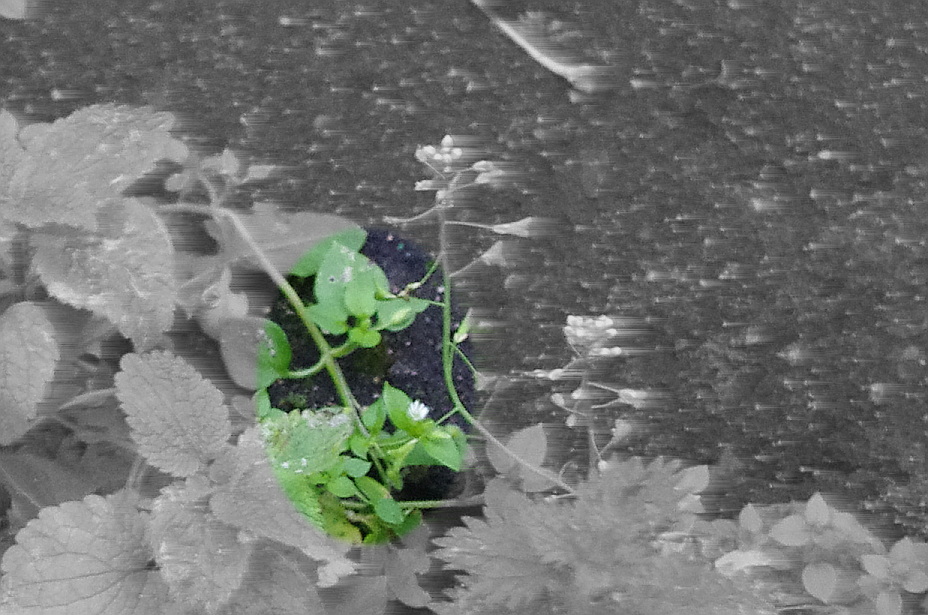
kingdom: Plantae
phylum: Tracheophyta
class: Magnoliopsida
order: Caryophyllales
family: Caryophyllaceae
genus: Stellaria
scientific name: Stellaria media
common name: Common chickweed
